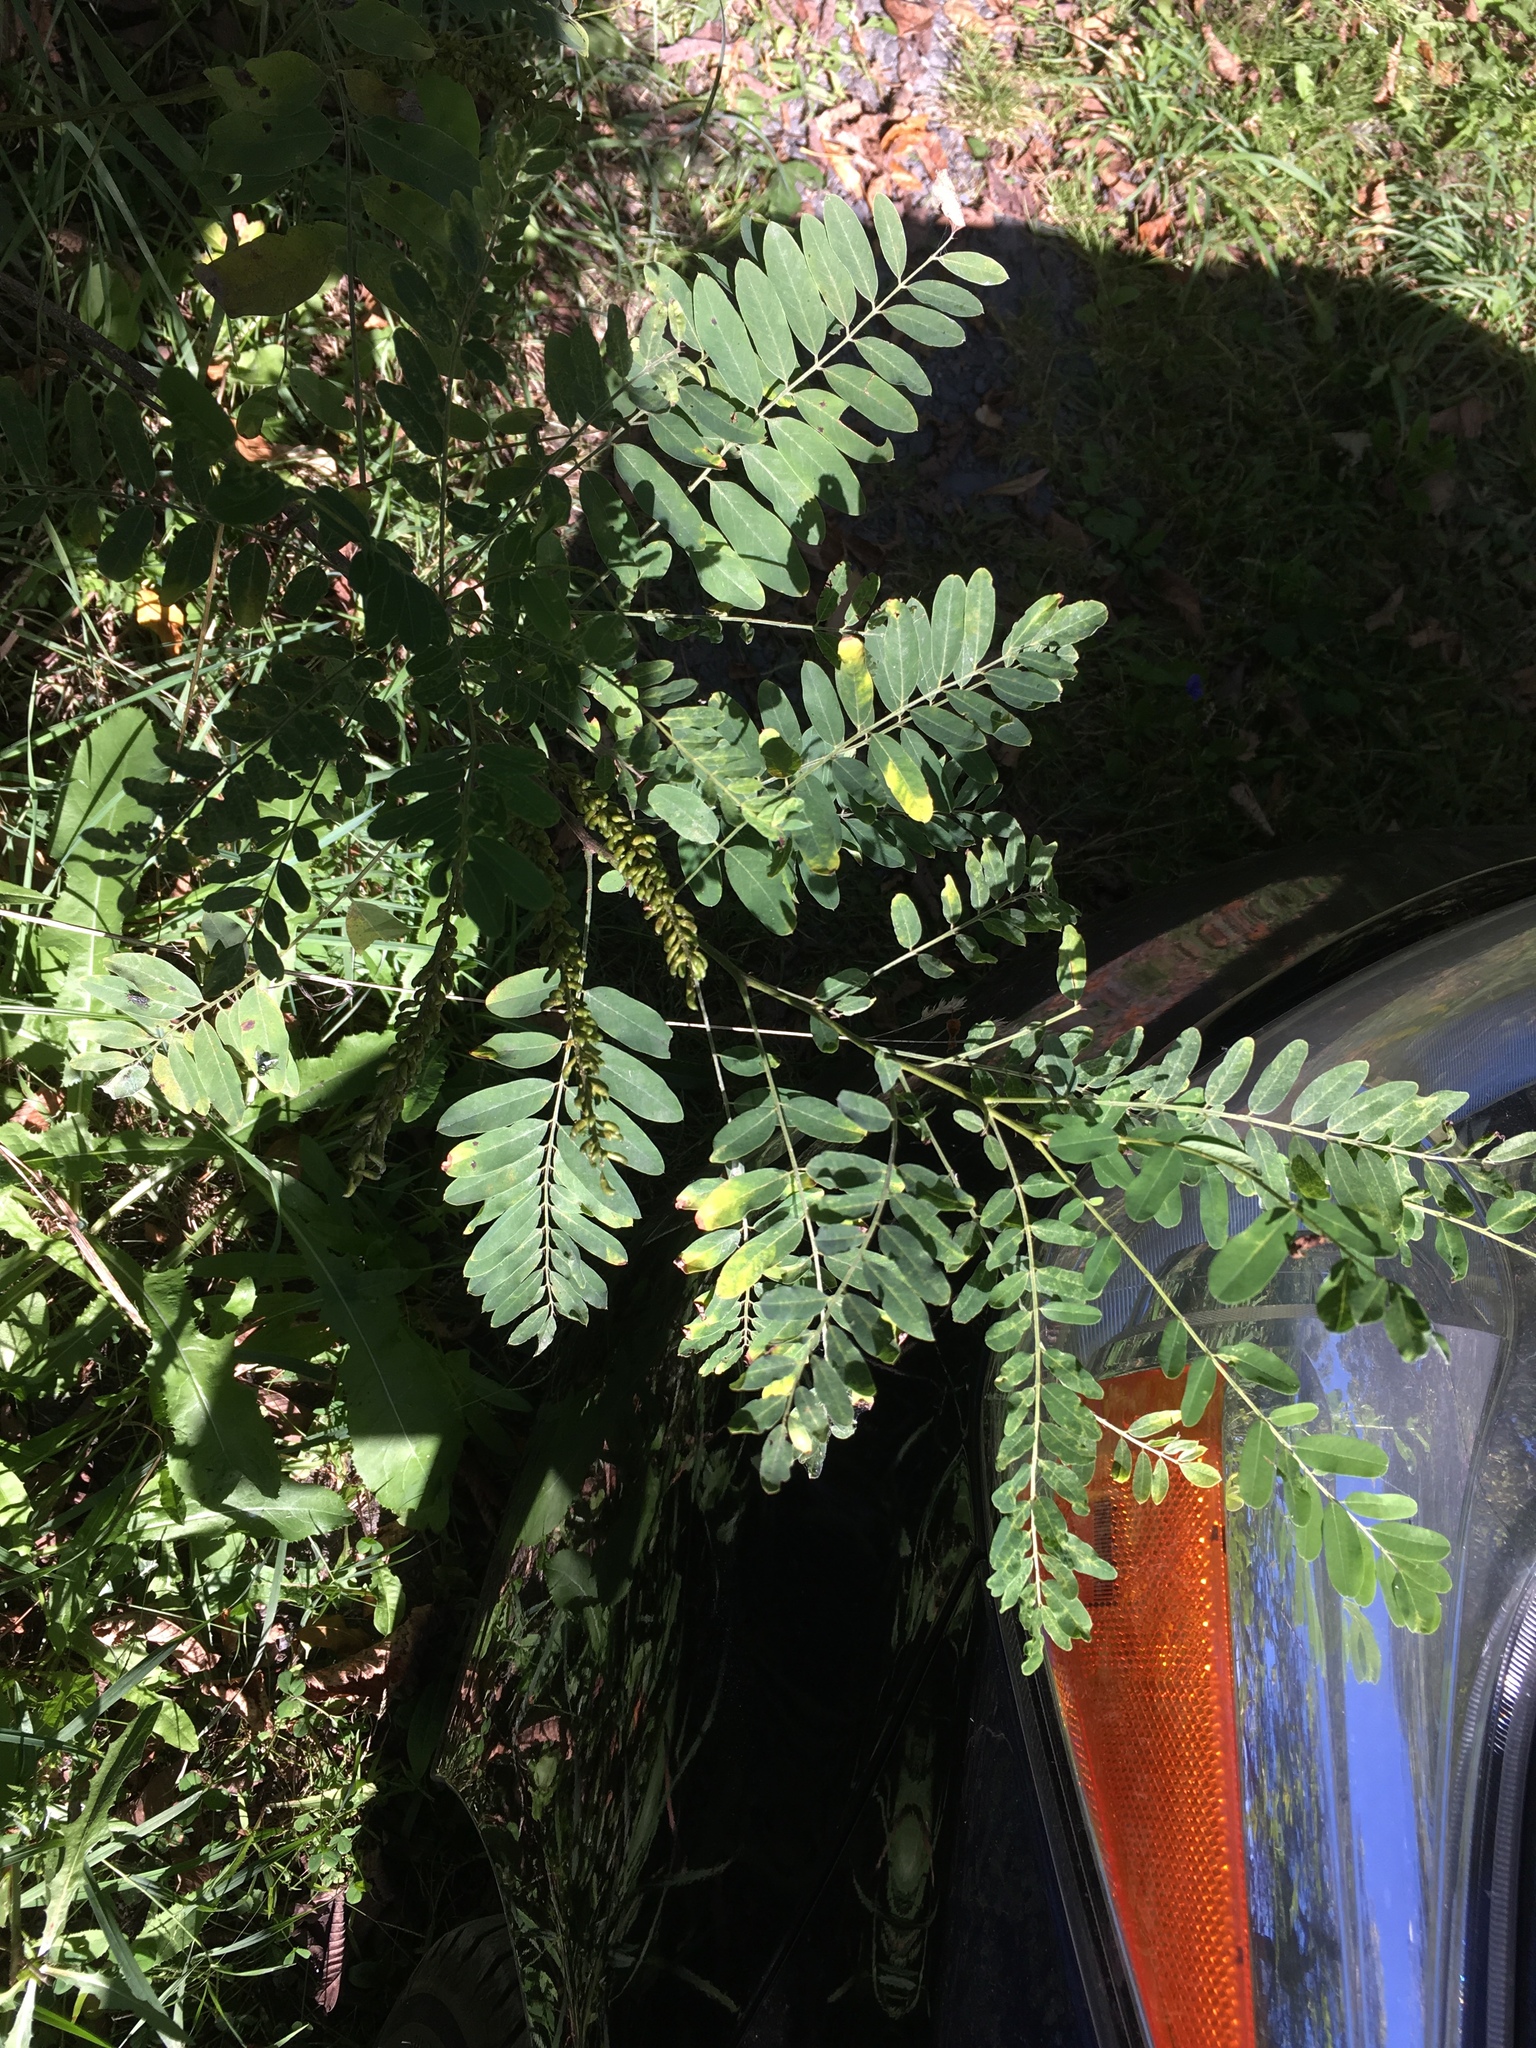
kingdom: Plantae
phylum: Tracheophyta
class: Magnoliopsida
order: Fabales
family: Fabaceae
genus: Amorpha
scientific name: Amorpha fruticosa
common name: False indigo
